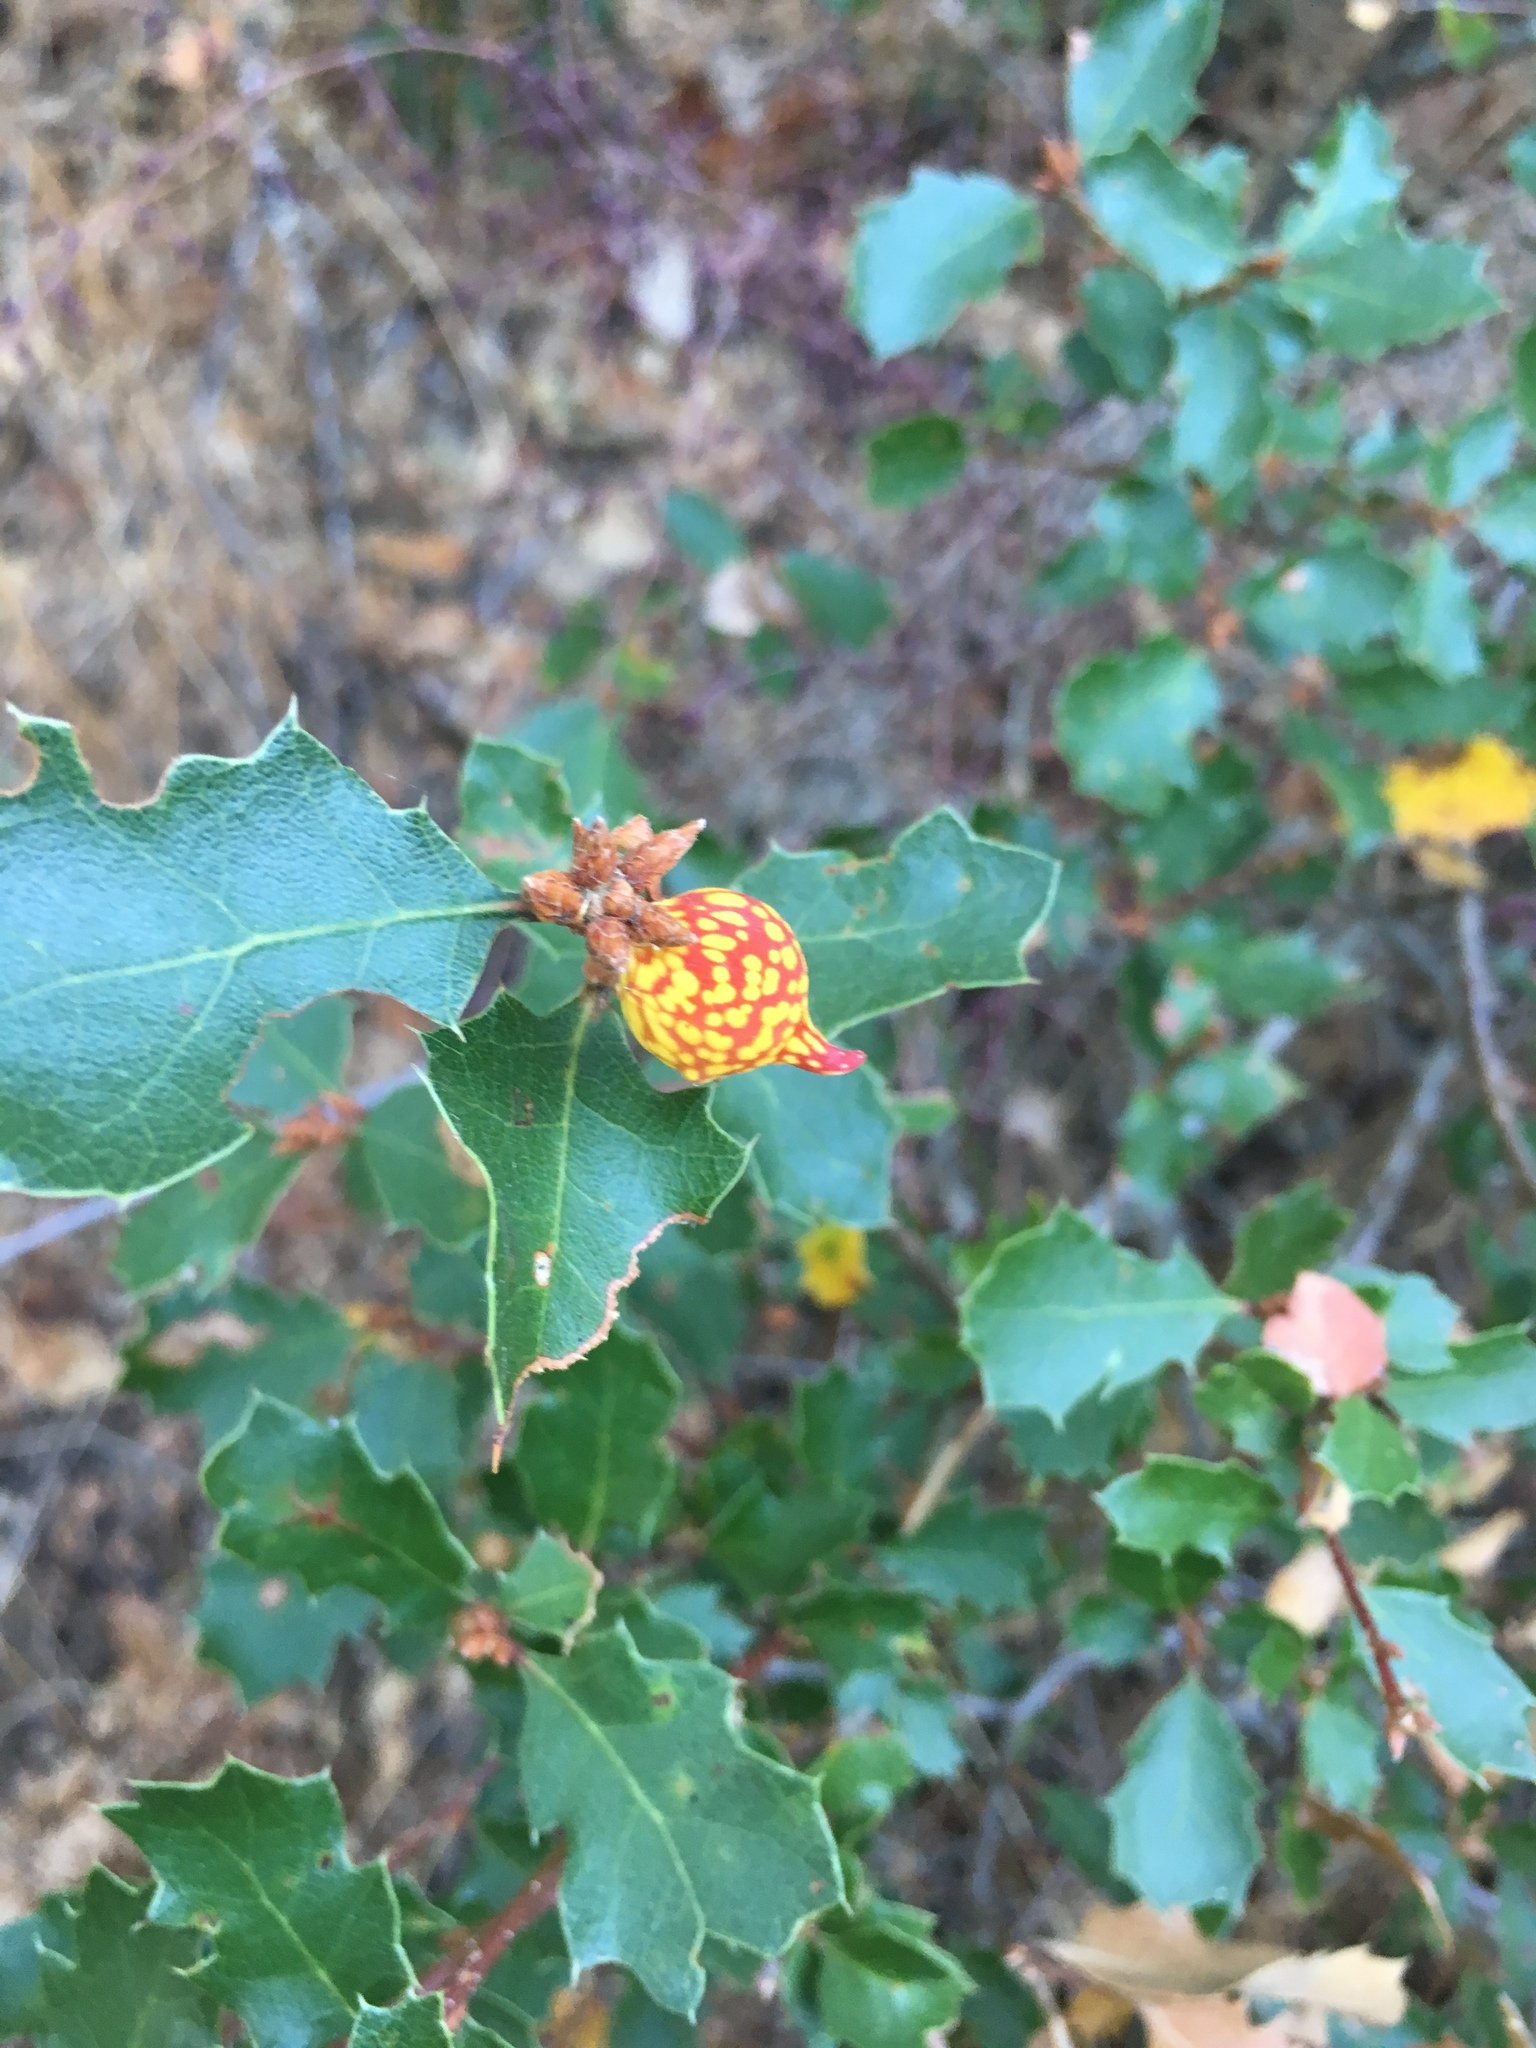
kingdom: Animalia
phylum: Arthropoda
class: Insecta
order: Hymenoptera
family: Cynipidae
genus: Burnettweldia
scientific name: Burnettweldia
